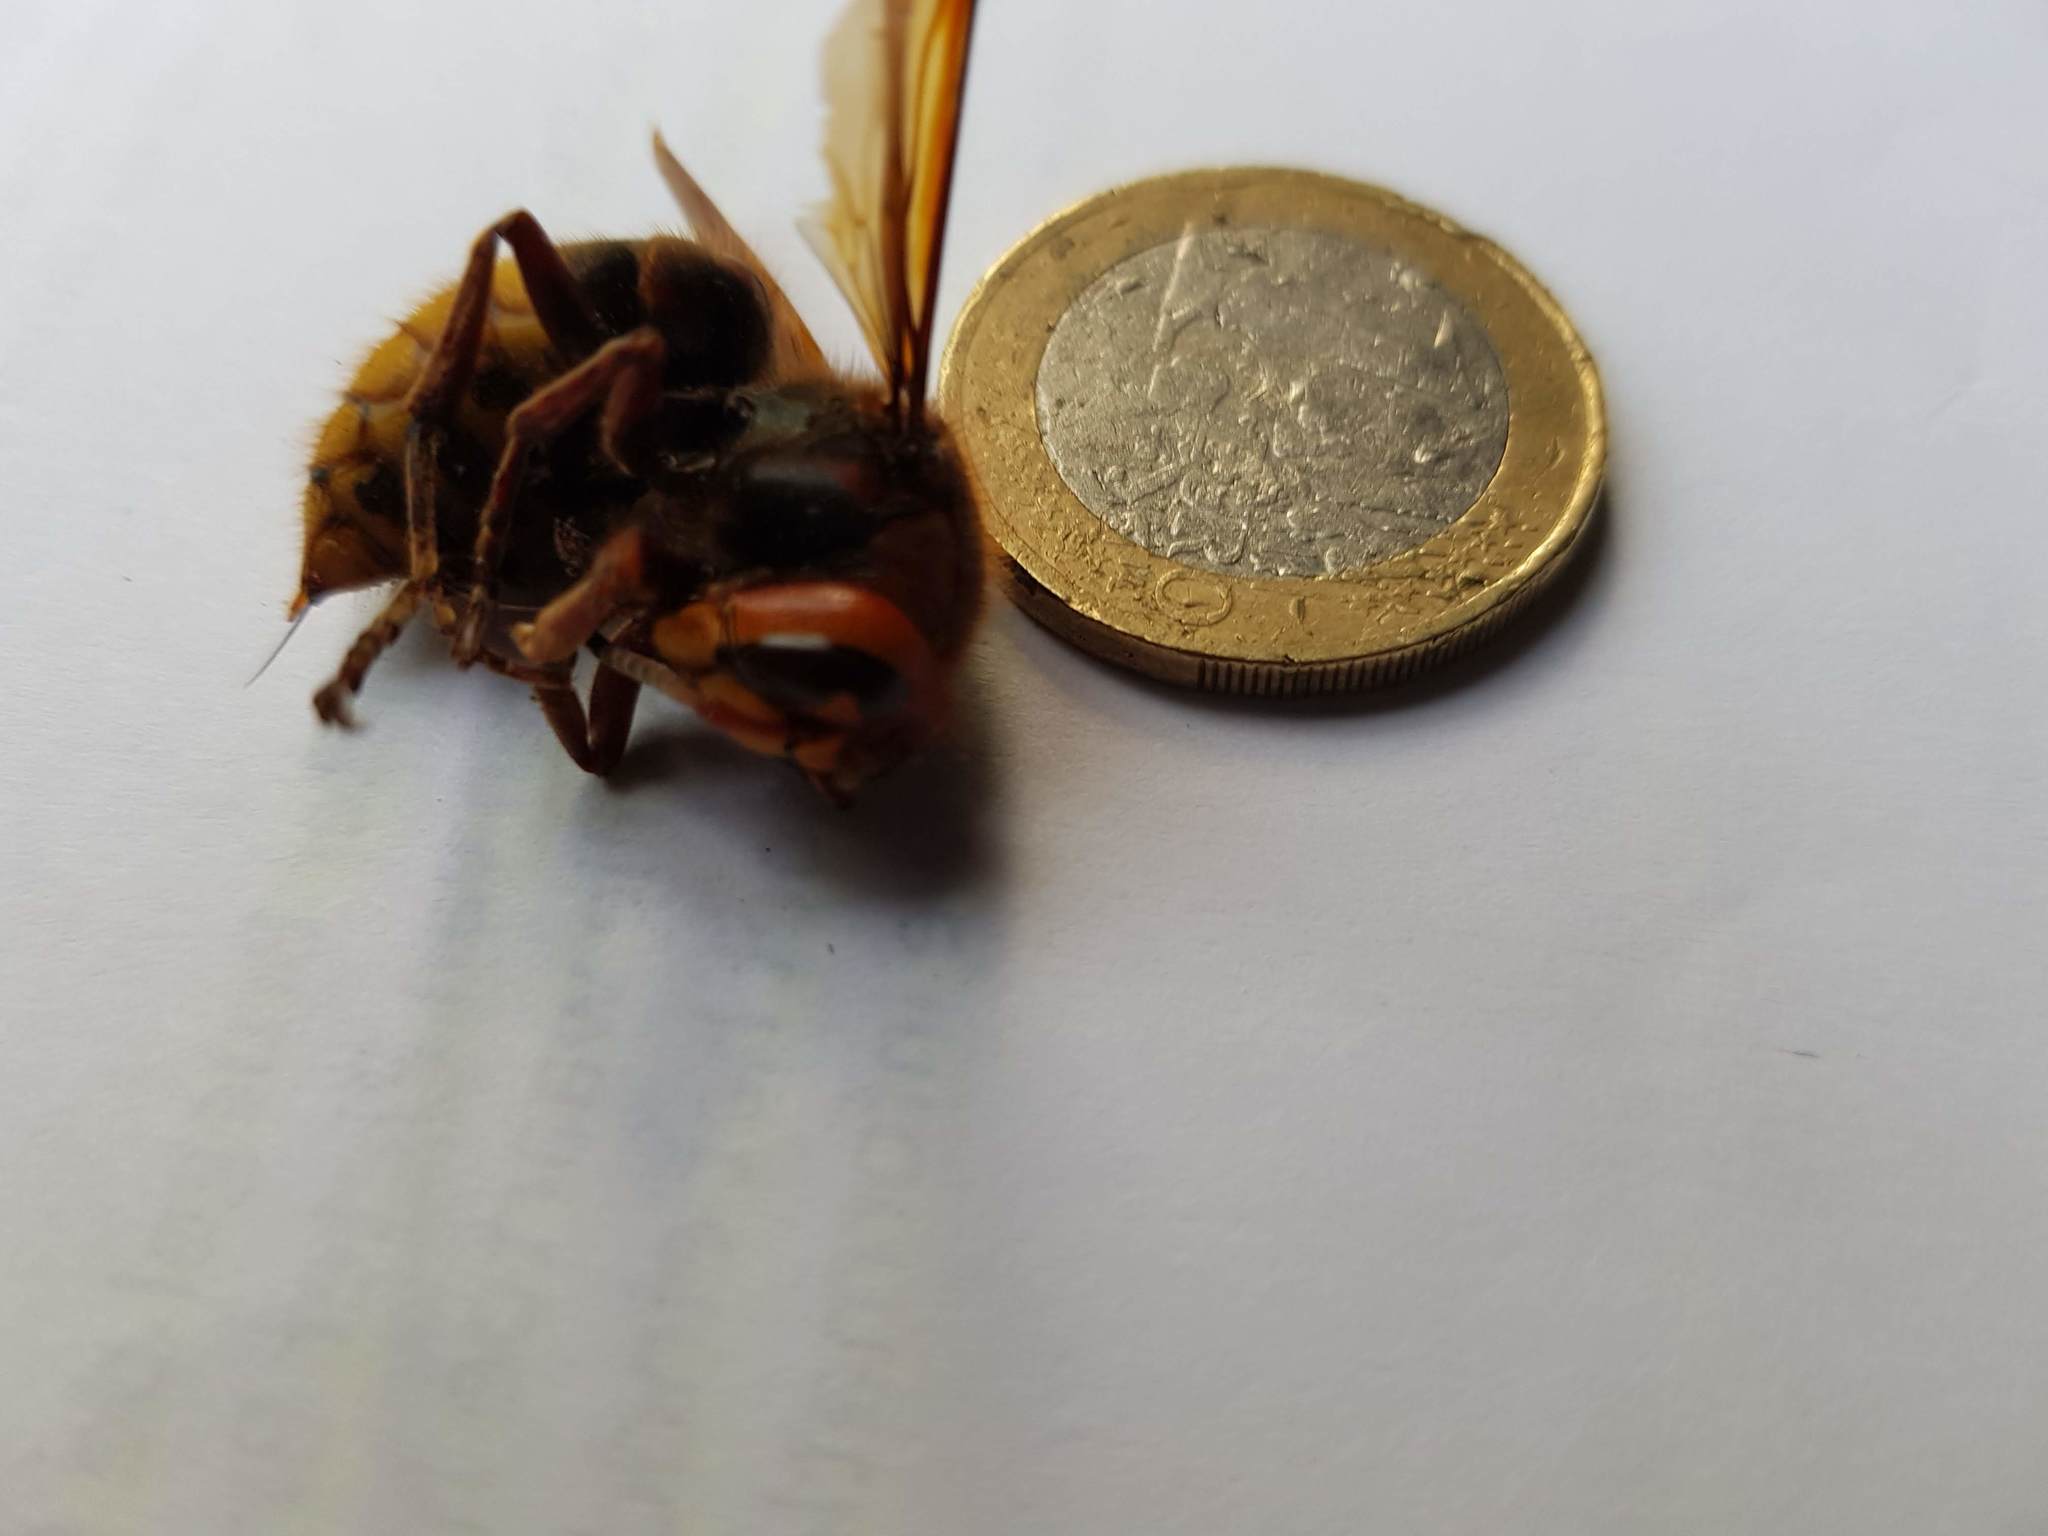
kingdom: Animalia
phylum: Arthropoda
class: Insecta
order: Hymenoptera
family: Vespidae
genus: Vespa
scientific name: Vespa crabro
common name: Hornet
